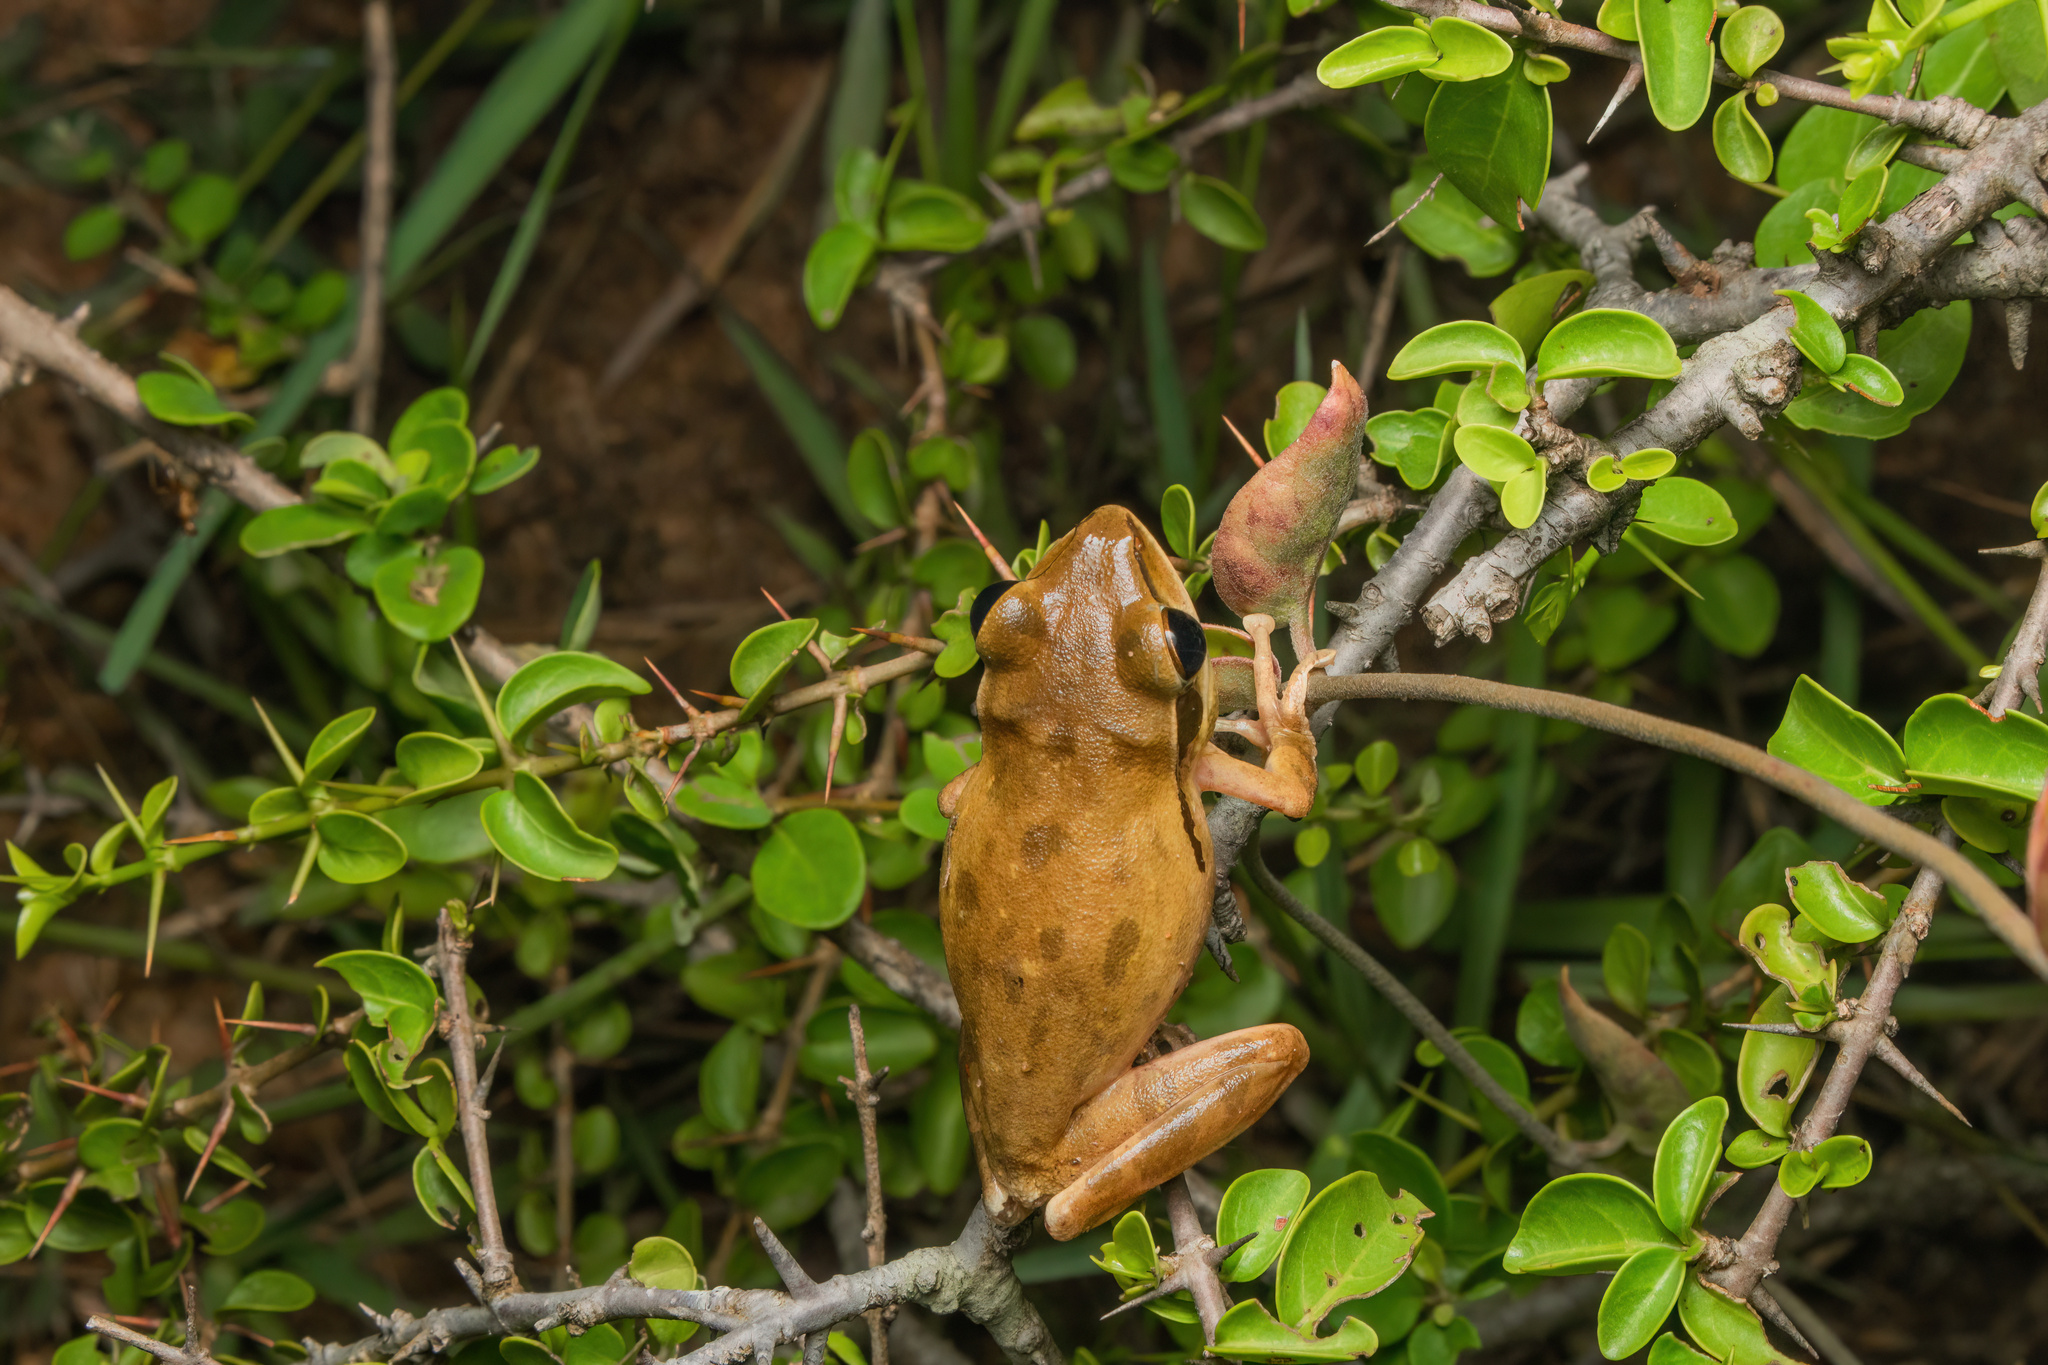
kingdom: Animalia
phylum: Chordata
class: Amphibia
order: Anura
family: Rhacophoridae
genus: Polypedates
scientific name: Polypedates maculatus
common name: Himalayan tree frog
